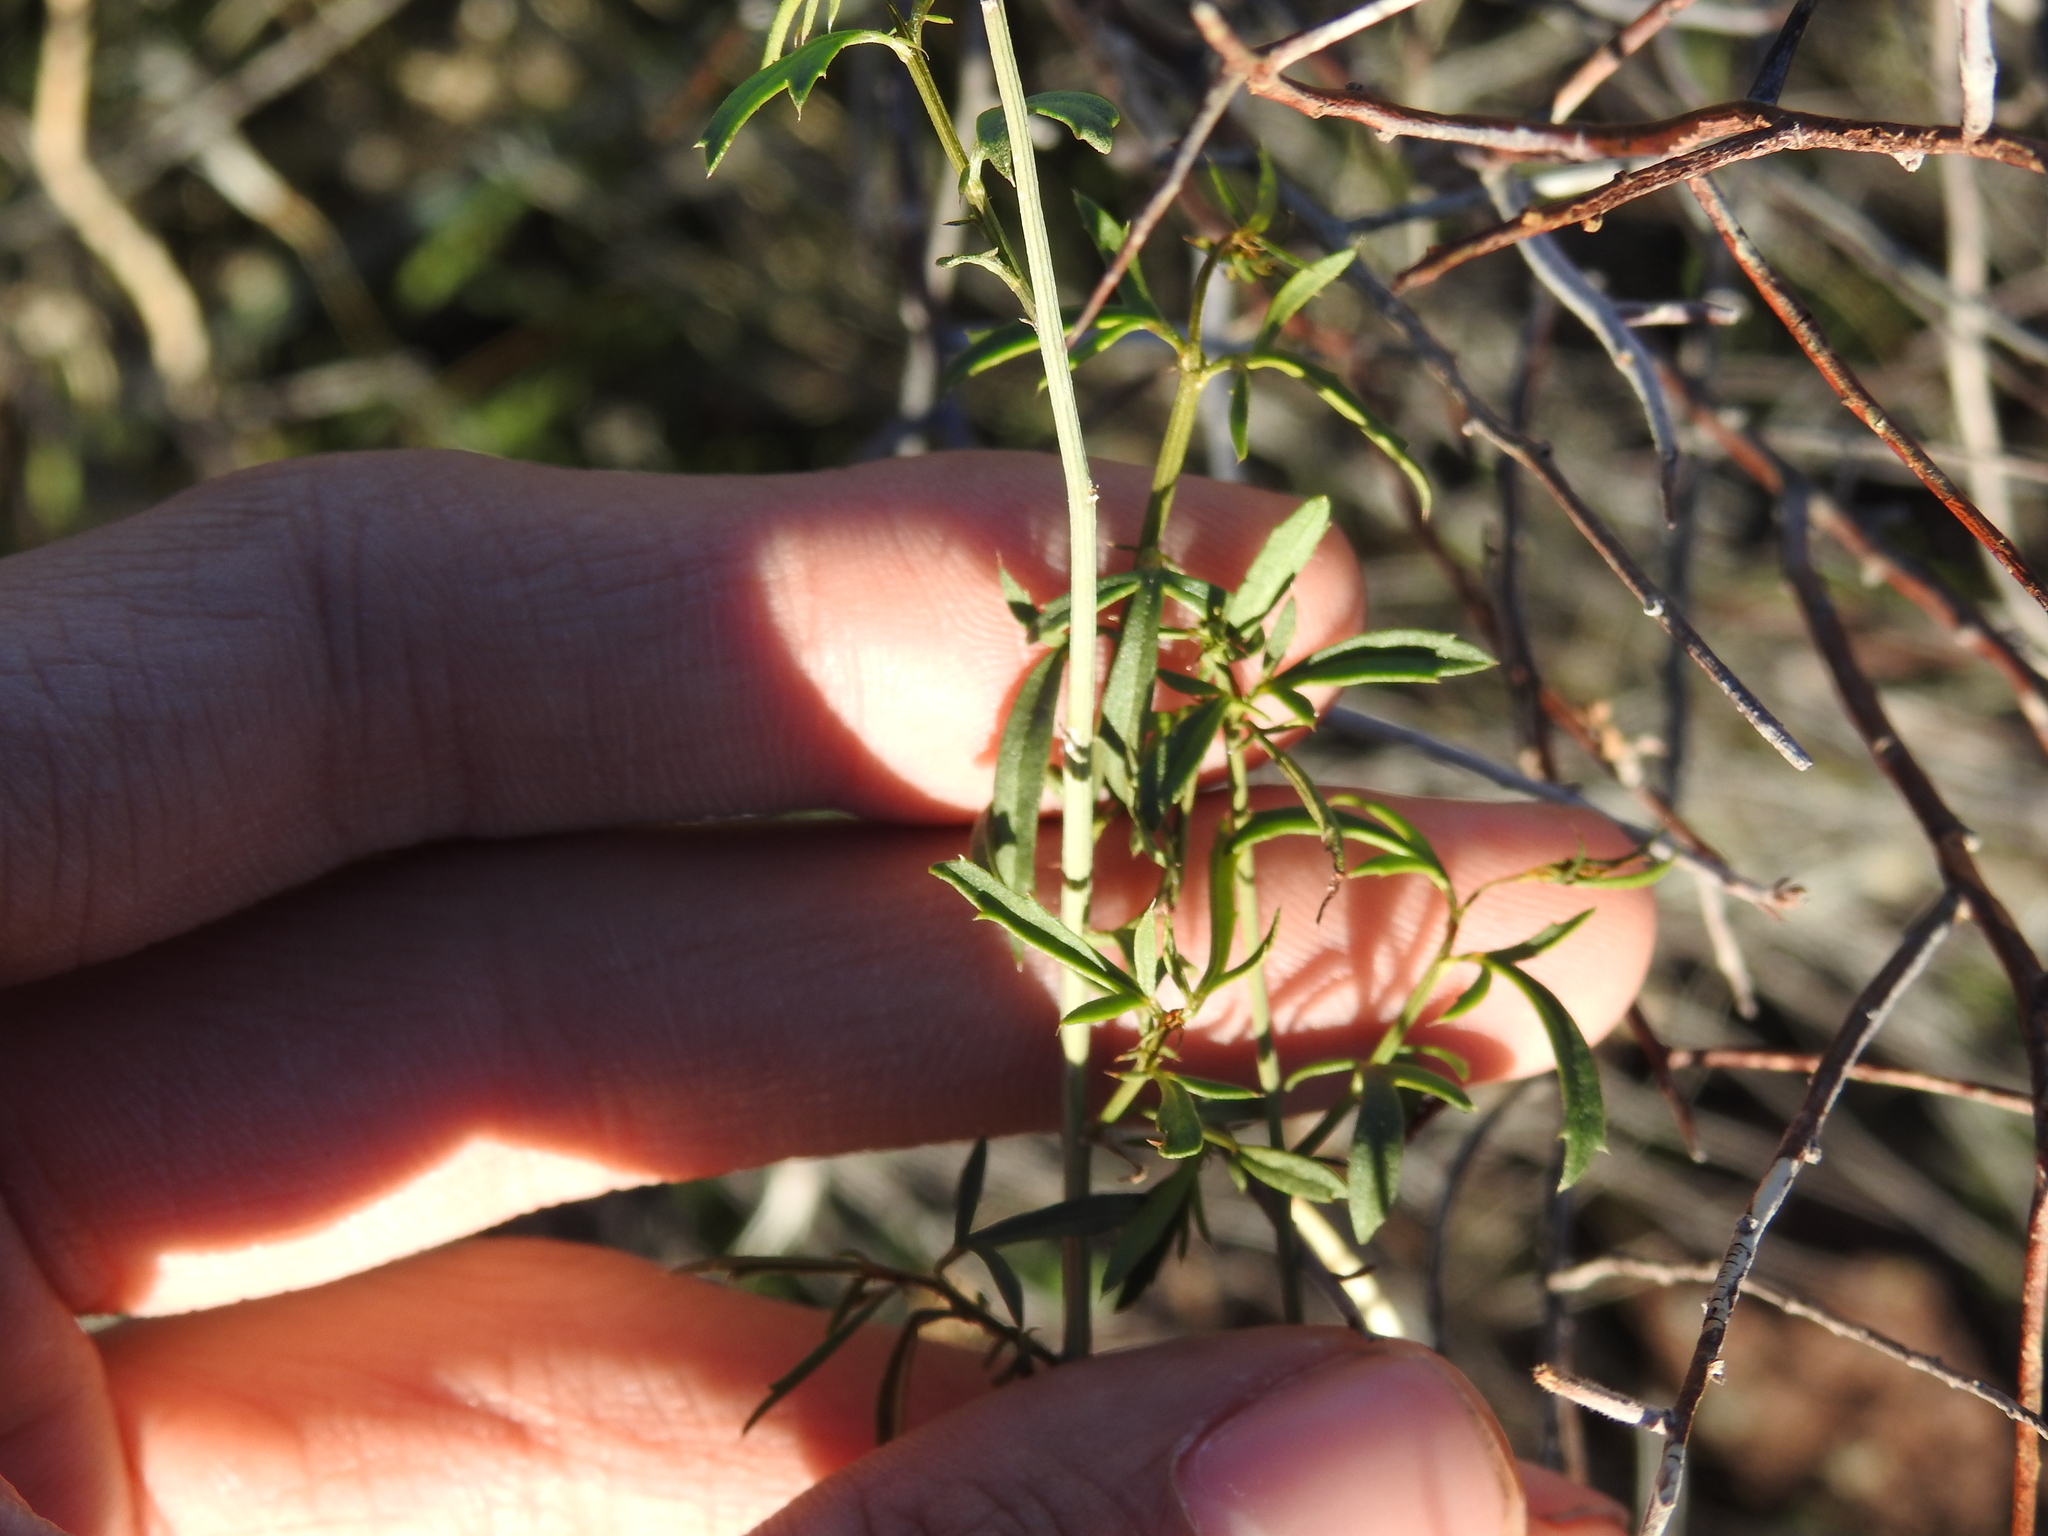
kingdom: Plantae
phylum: Tracheophyta
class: Magnoliopsida
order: Asterales
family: Asteraceae
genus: Adenophyllum
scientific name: Adenophyllum porophylloides
